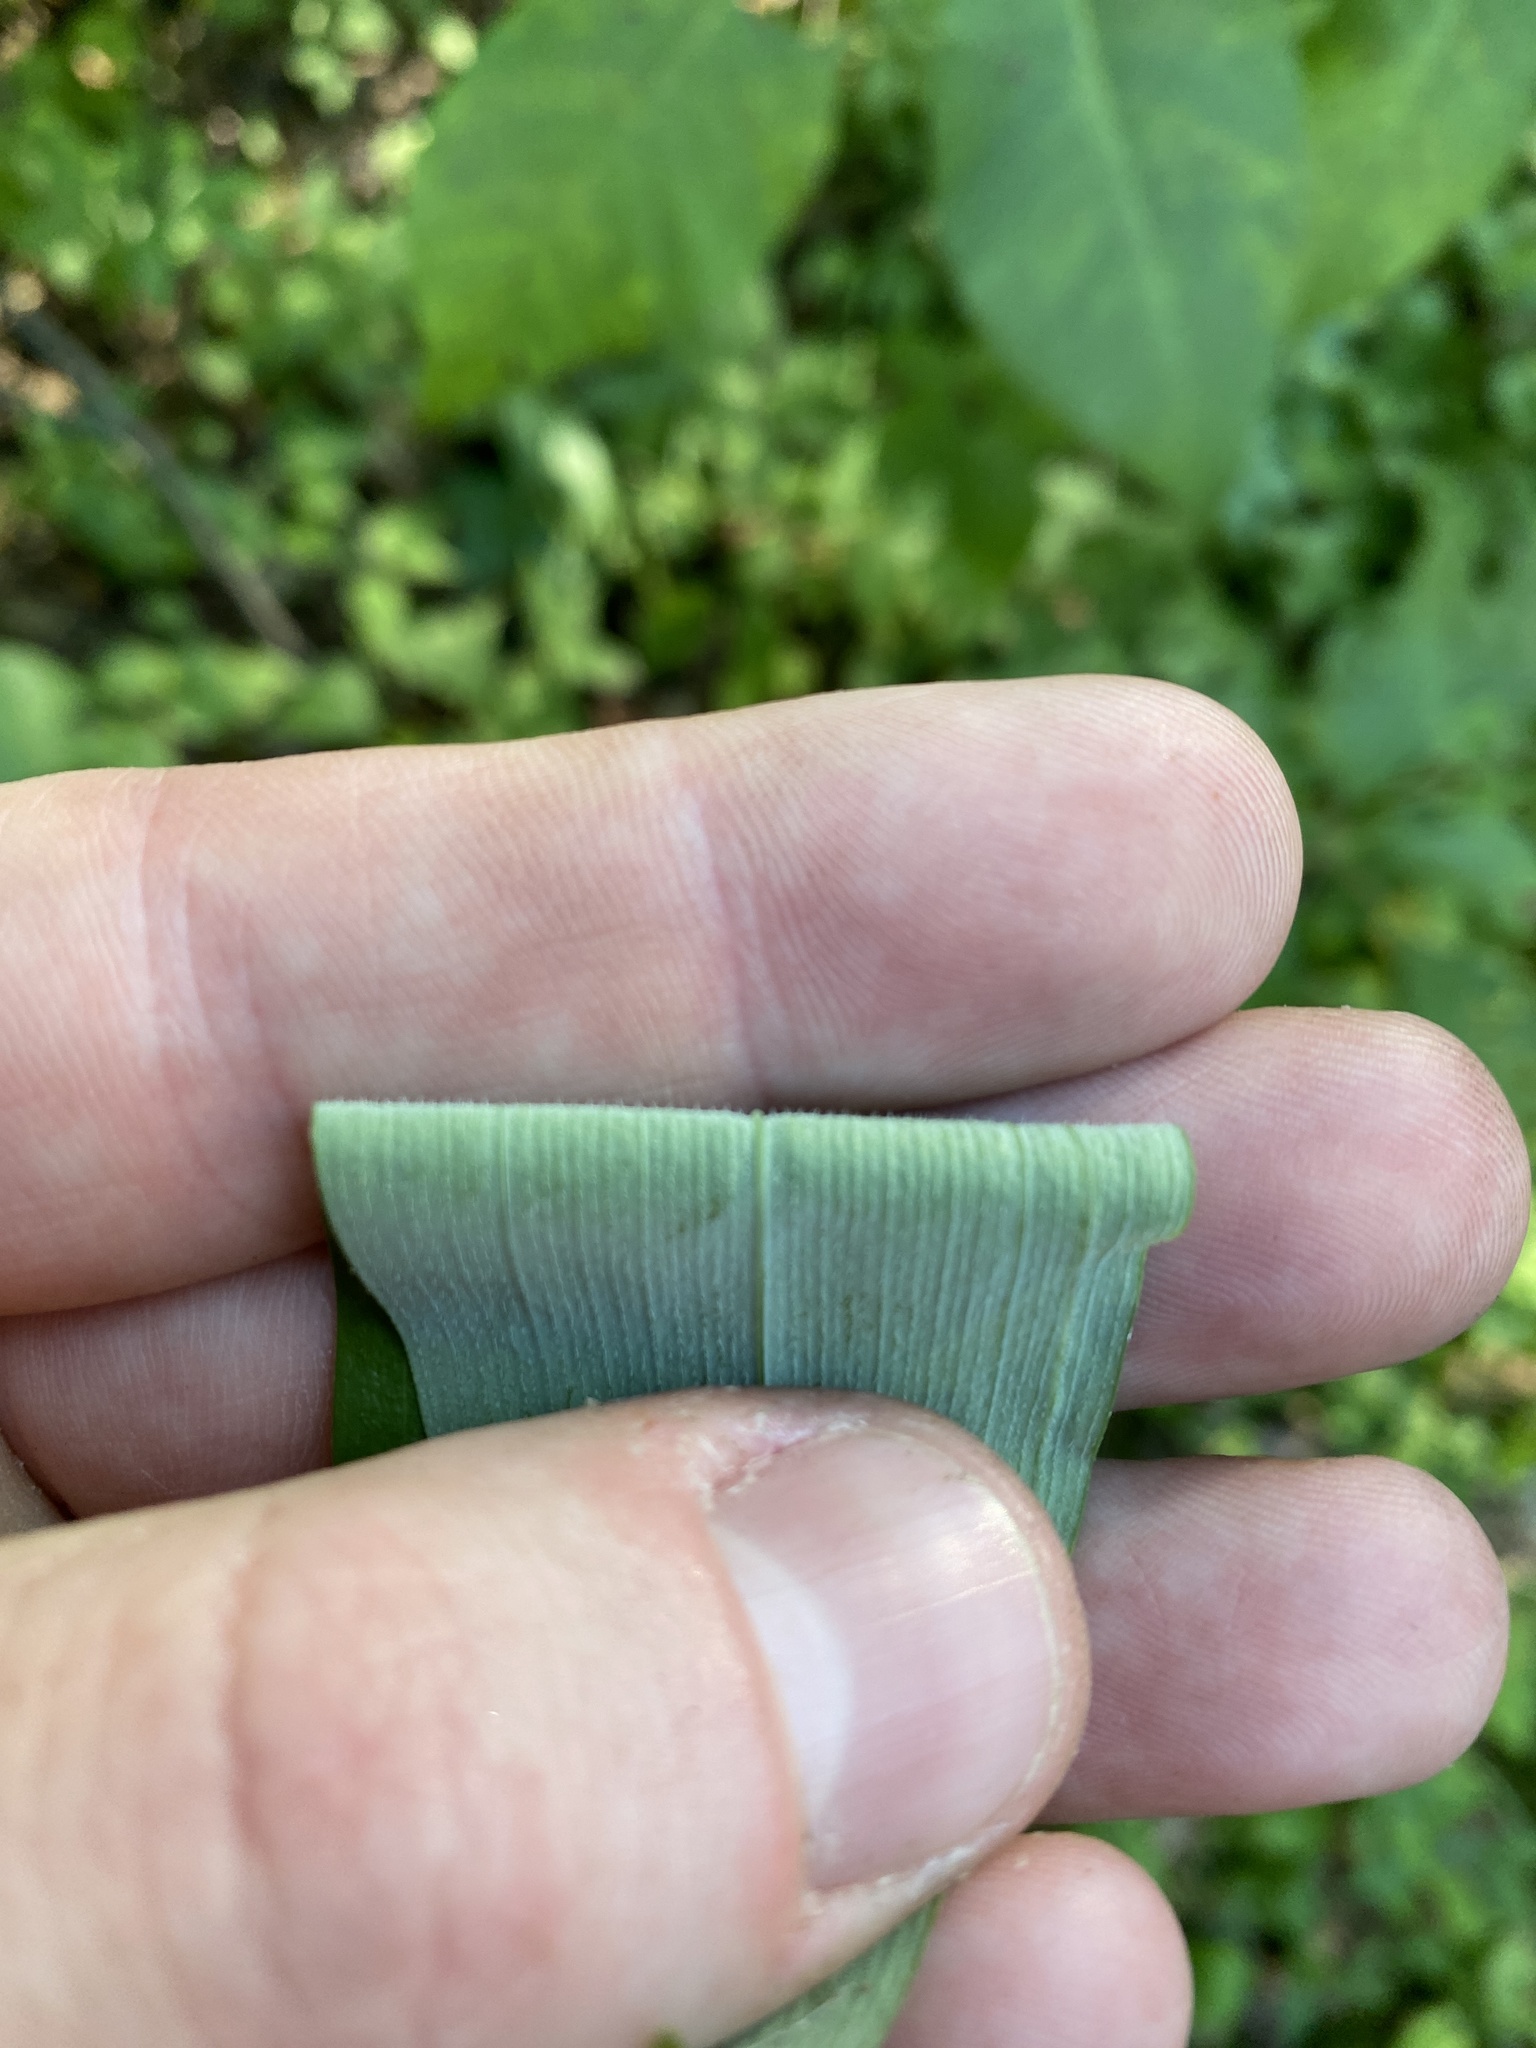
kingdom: Plantae
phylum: Tracheophyta
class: Liliopsida
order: Asparagales
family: Asparagaceae
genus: Polygonatum
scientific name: Polygonatum pubescens
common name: Downy solomon's seal
